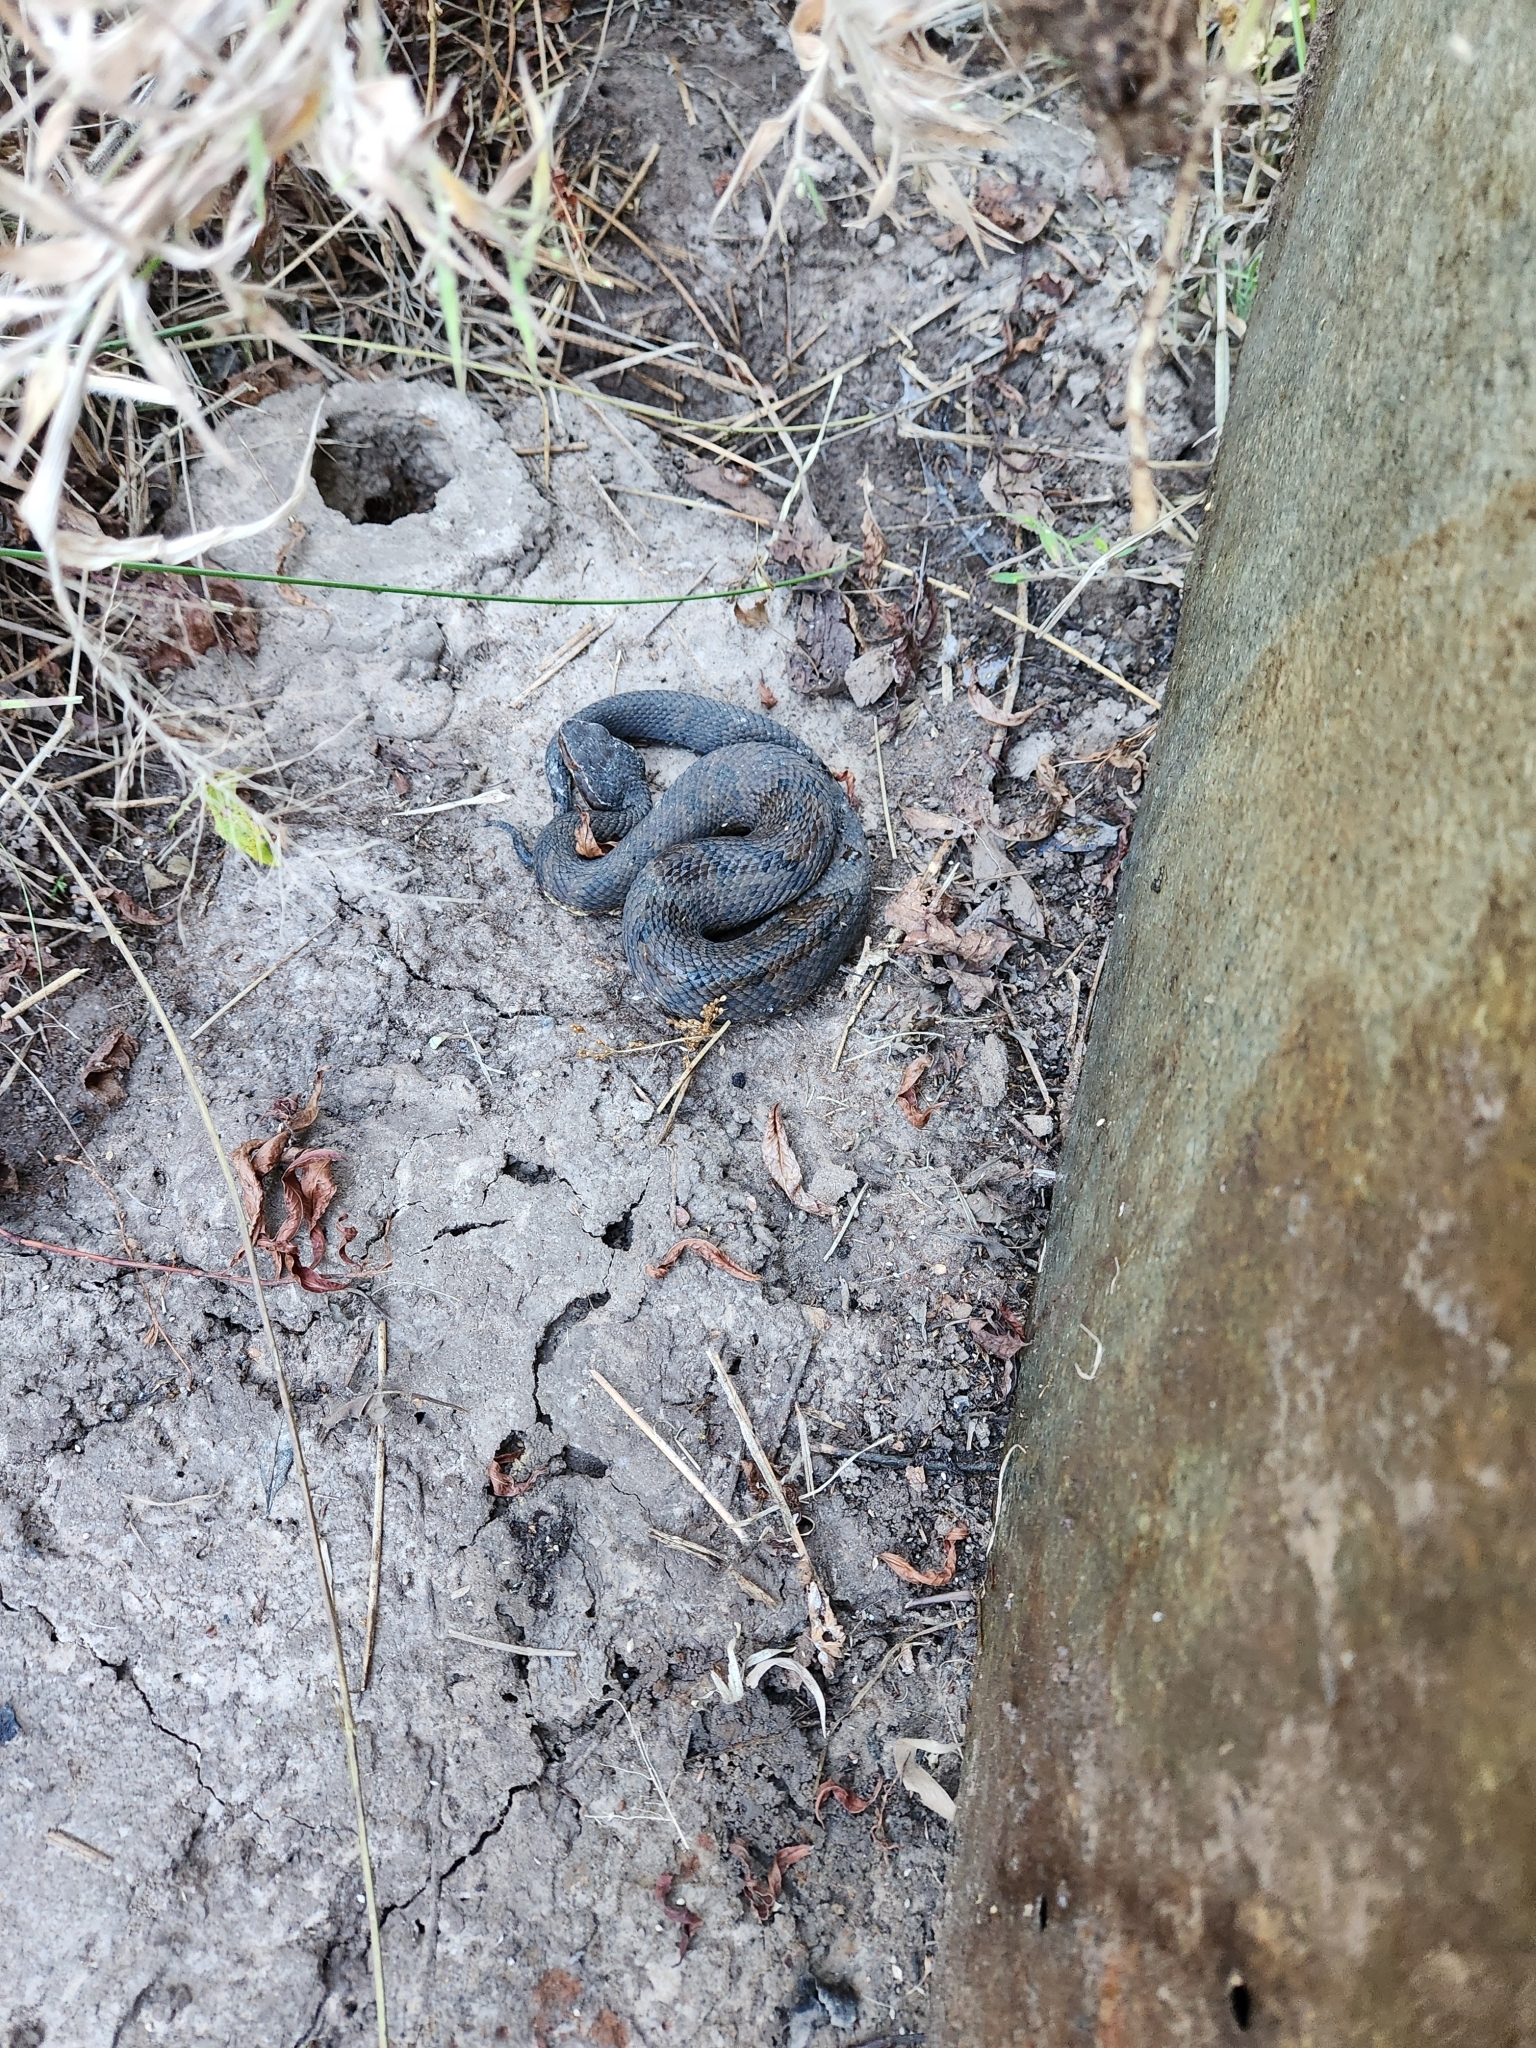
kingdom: Animalia
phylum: Chordata
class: Squamata
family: Viperidae
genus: Agkistrodon
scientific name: Agkistrodon piscivorus
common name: Cottonmouth
